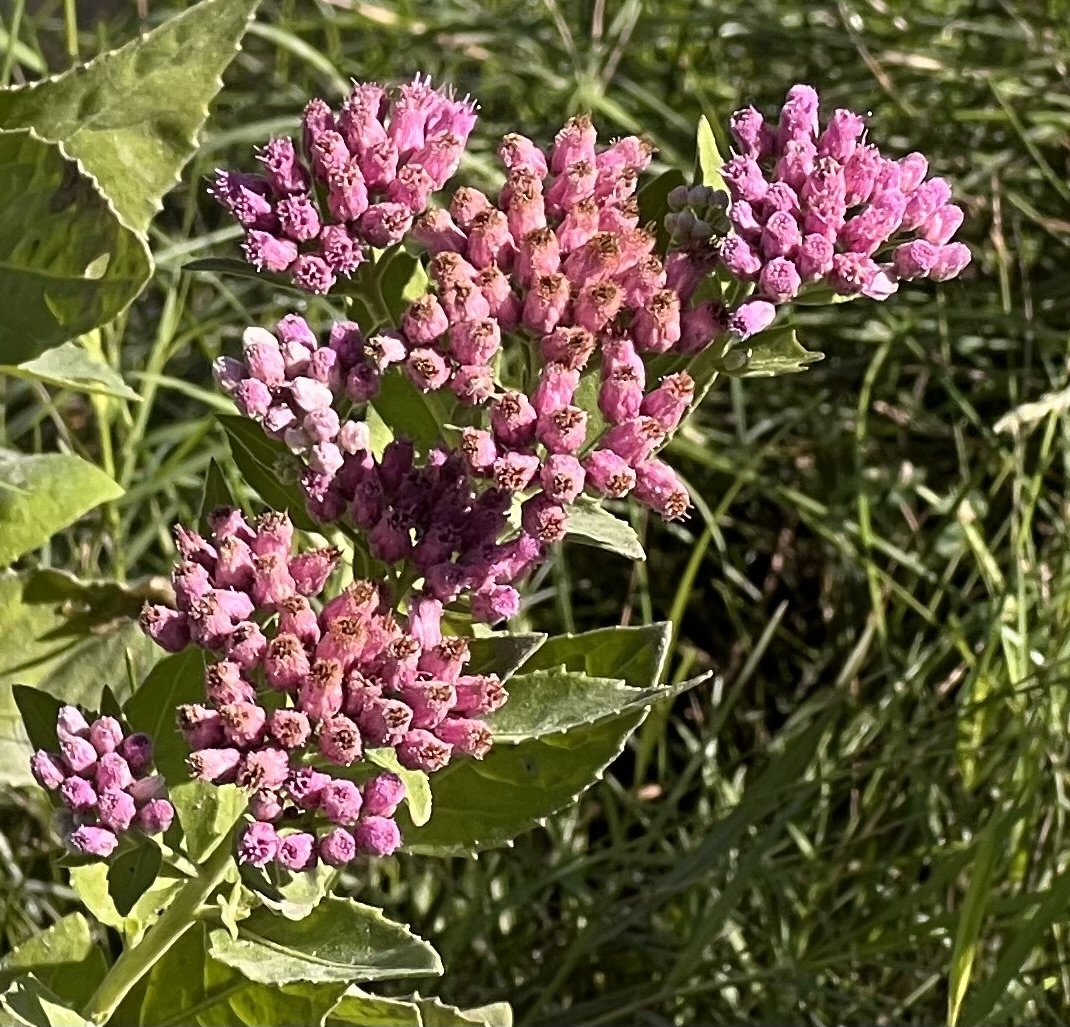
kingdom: Plantae
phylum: Tracheophyta
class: Magnoliopsida
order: Asterales
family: Asteraceae
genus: Pluchea
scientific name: Pluchea odorata
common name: Saltmarsh fleabane
